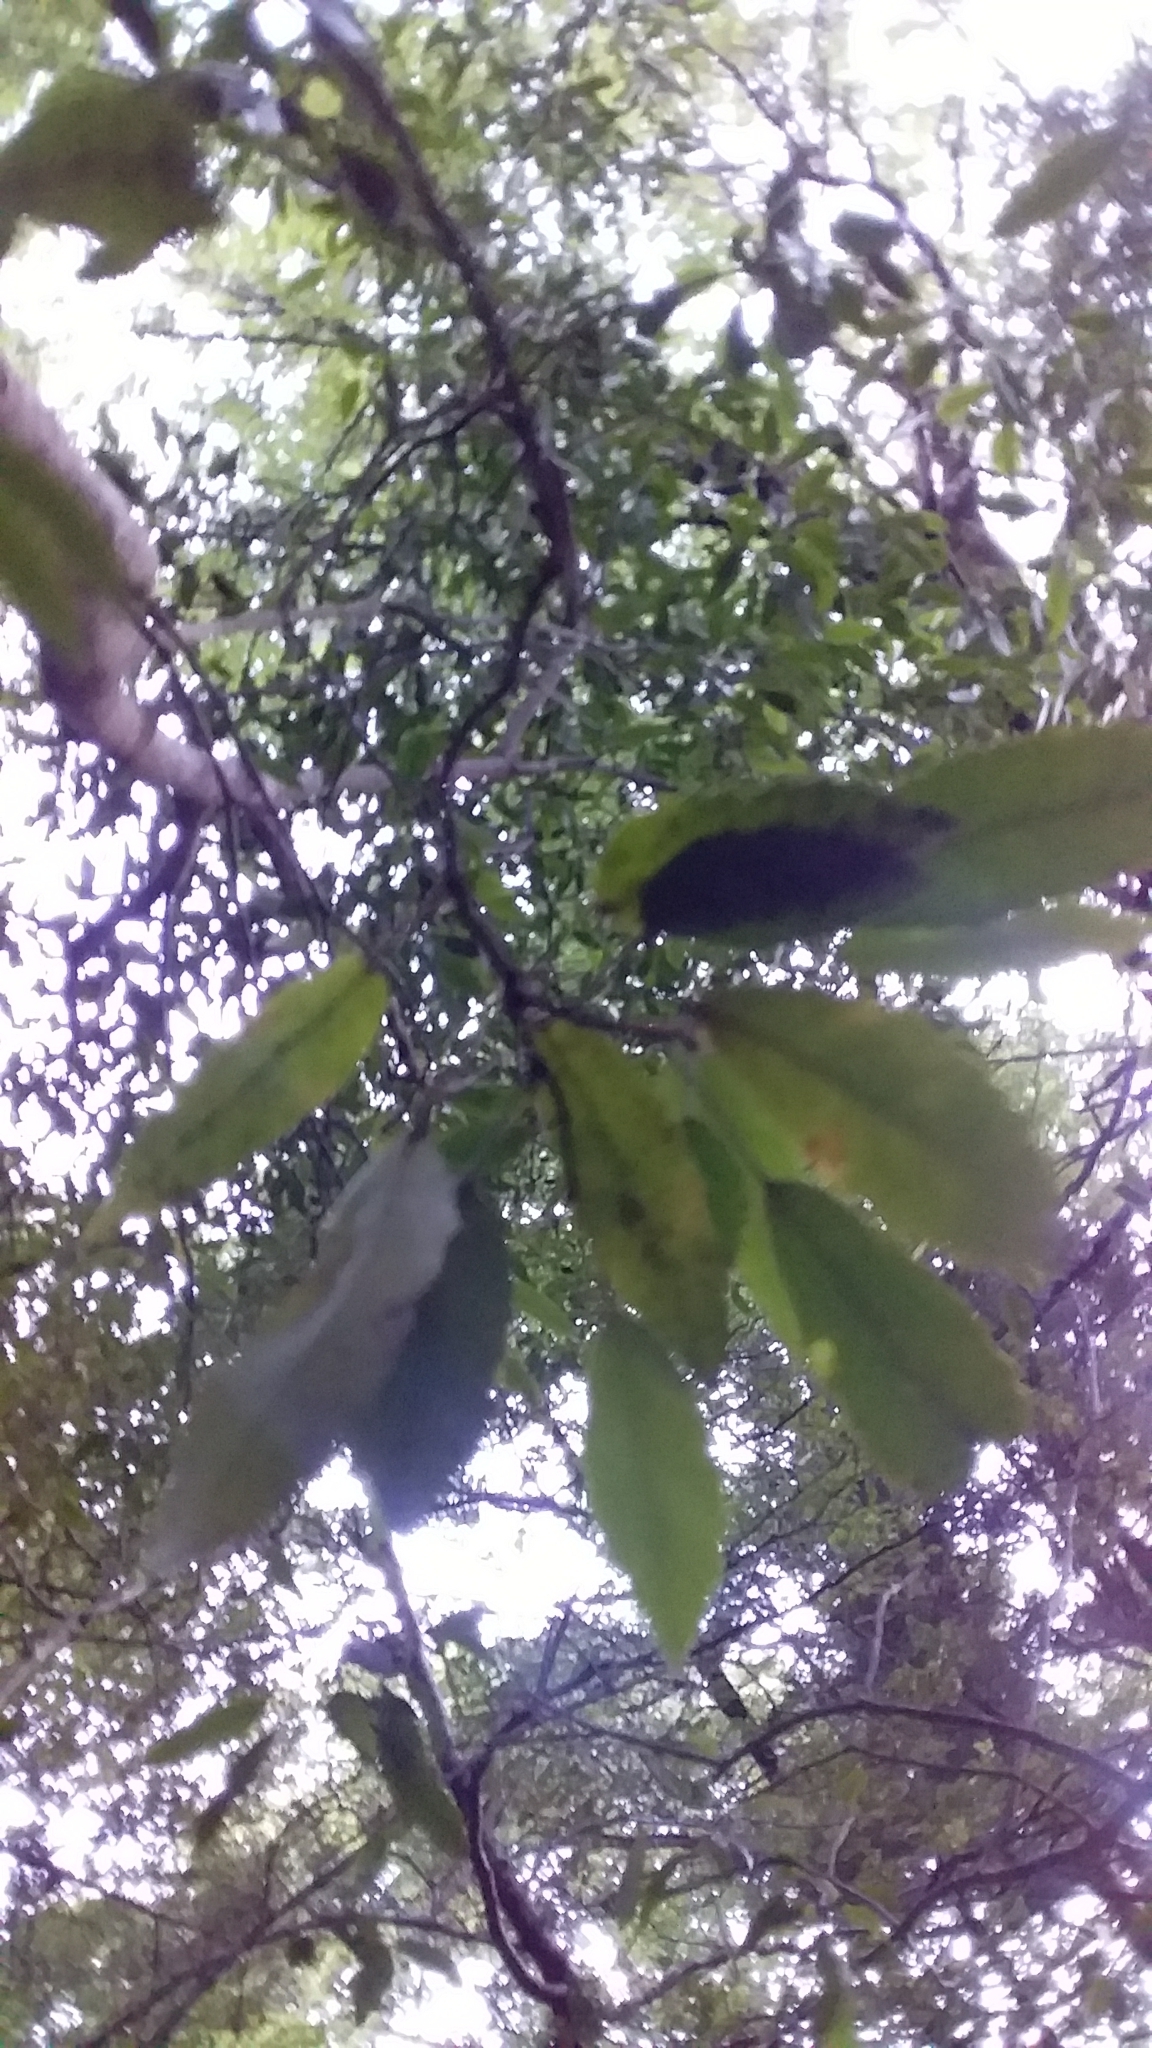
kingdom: Plantae
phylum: Tracheophyta
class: Magnoliopsida
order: Apiales
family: Araliaceae
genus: Raukaua
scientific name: Raukaua simplex
